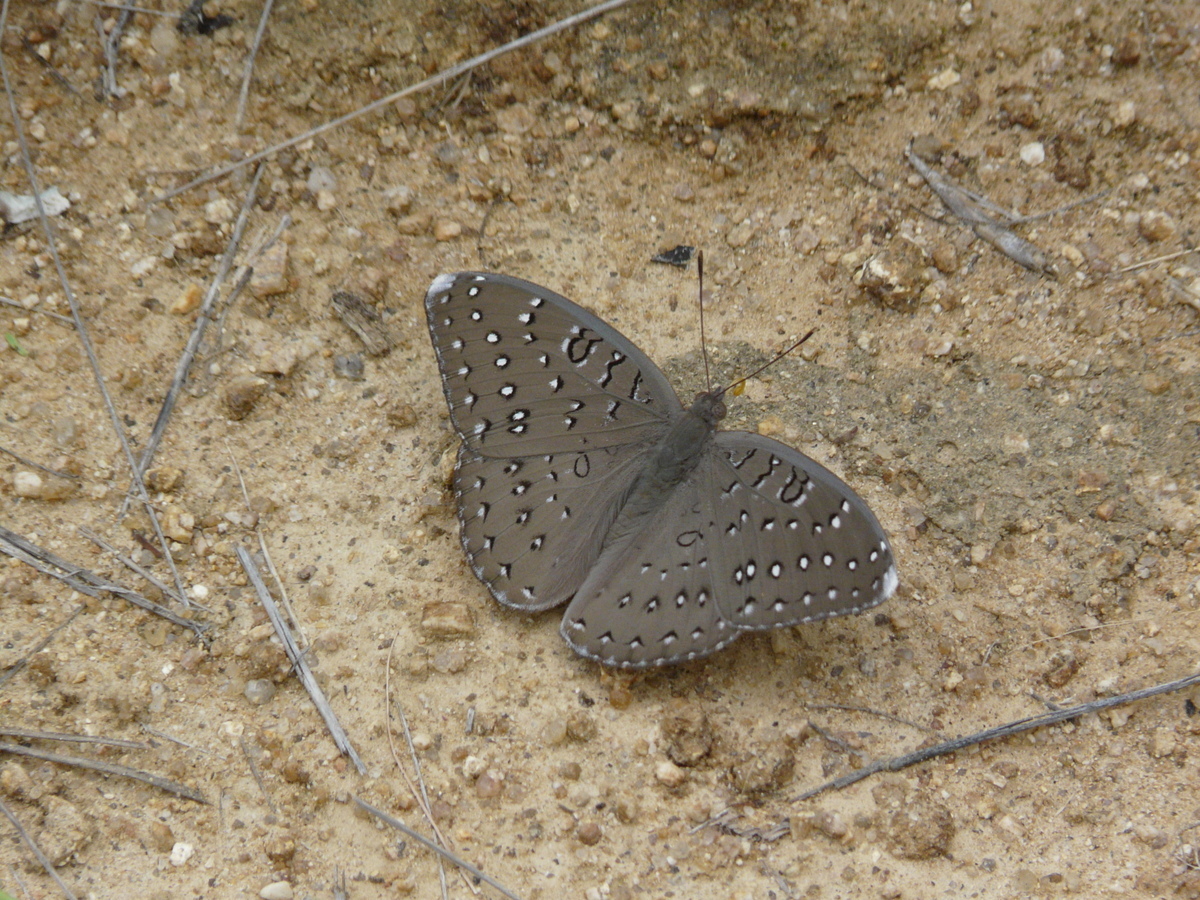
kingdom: Animalia
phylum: Arthropoda
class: Insecta
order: Lepidoptera
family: Nymphalidae
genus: Hamanumida
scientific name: Hamanumida daedalus
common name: Guinea-fowl butterfly
